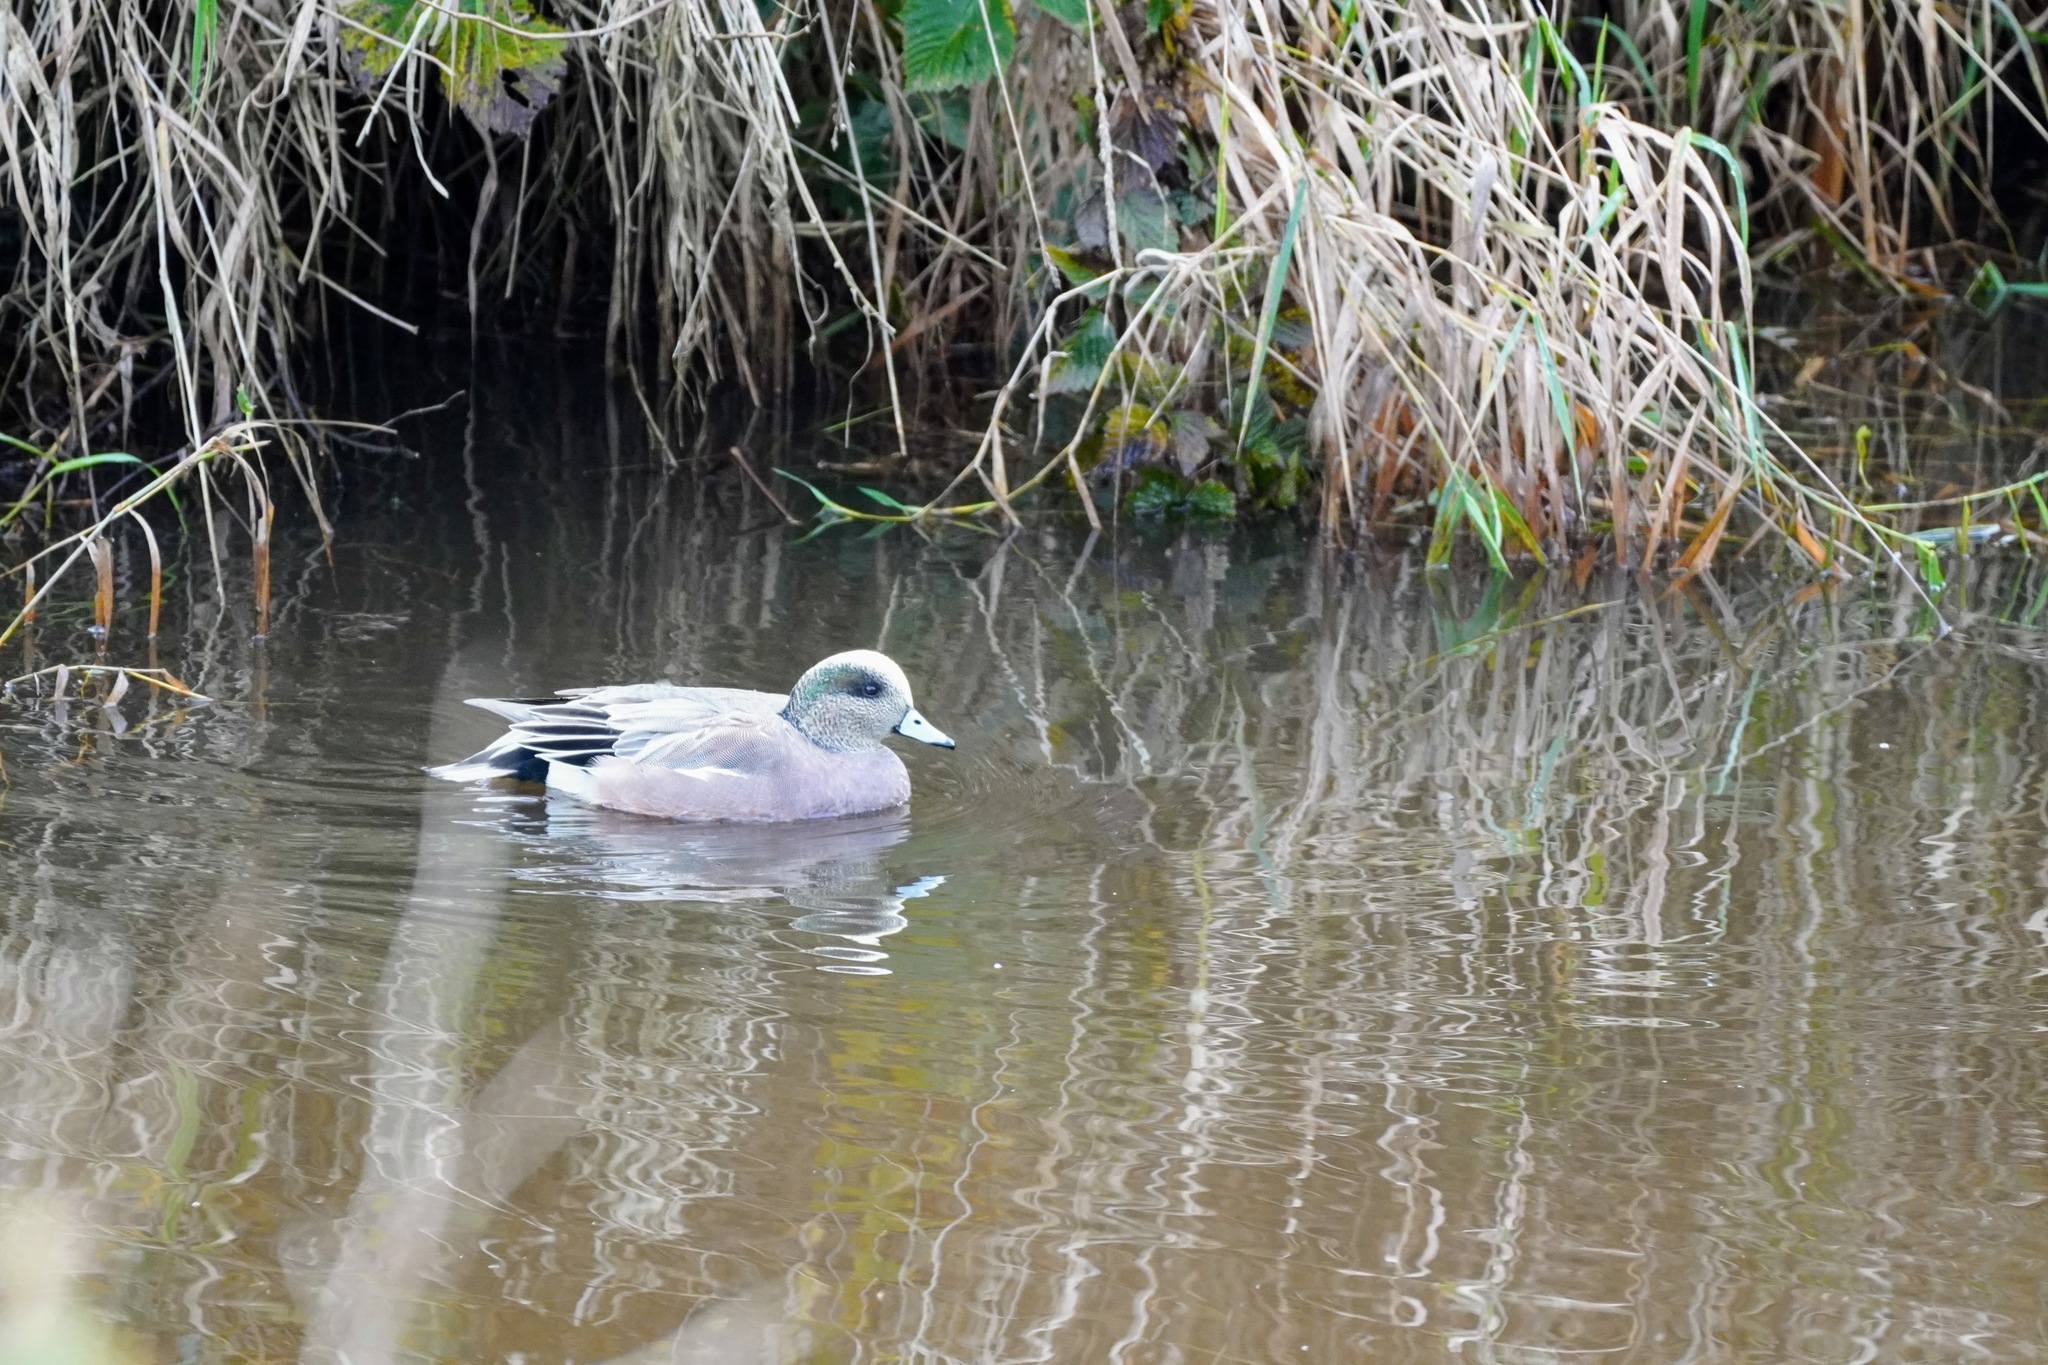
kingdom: Animalia
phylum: Chordata
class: Aves
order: Anseriformes
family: Anatidae
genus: Mareca
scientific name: Mareca americana
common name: American wigeon
